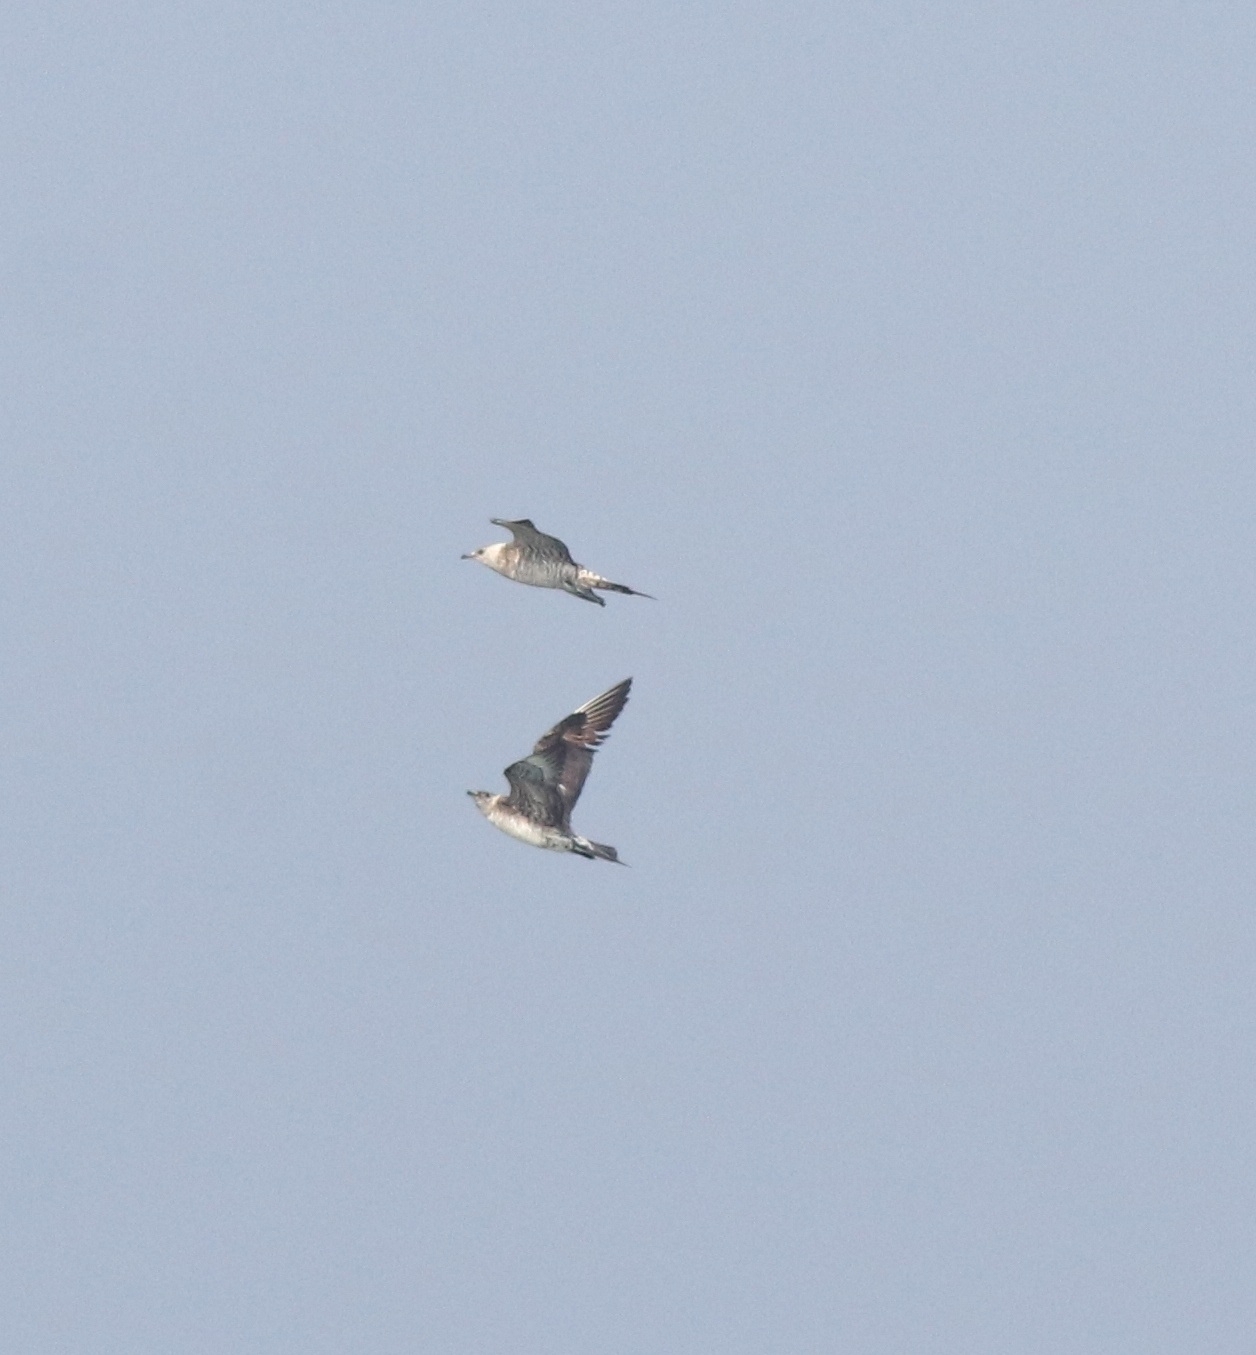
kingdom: Animalia
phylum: Chordata
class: Aves
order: Charadriiformes
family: Stercorariidae
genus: Stercorarius
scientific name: Stercorarius parasiticus
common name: Parasitic jaeger
